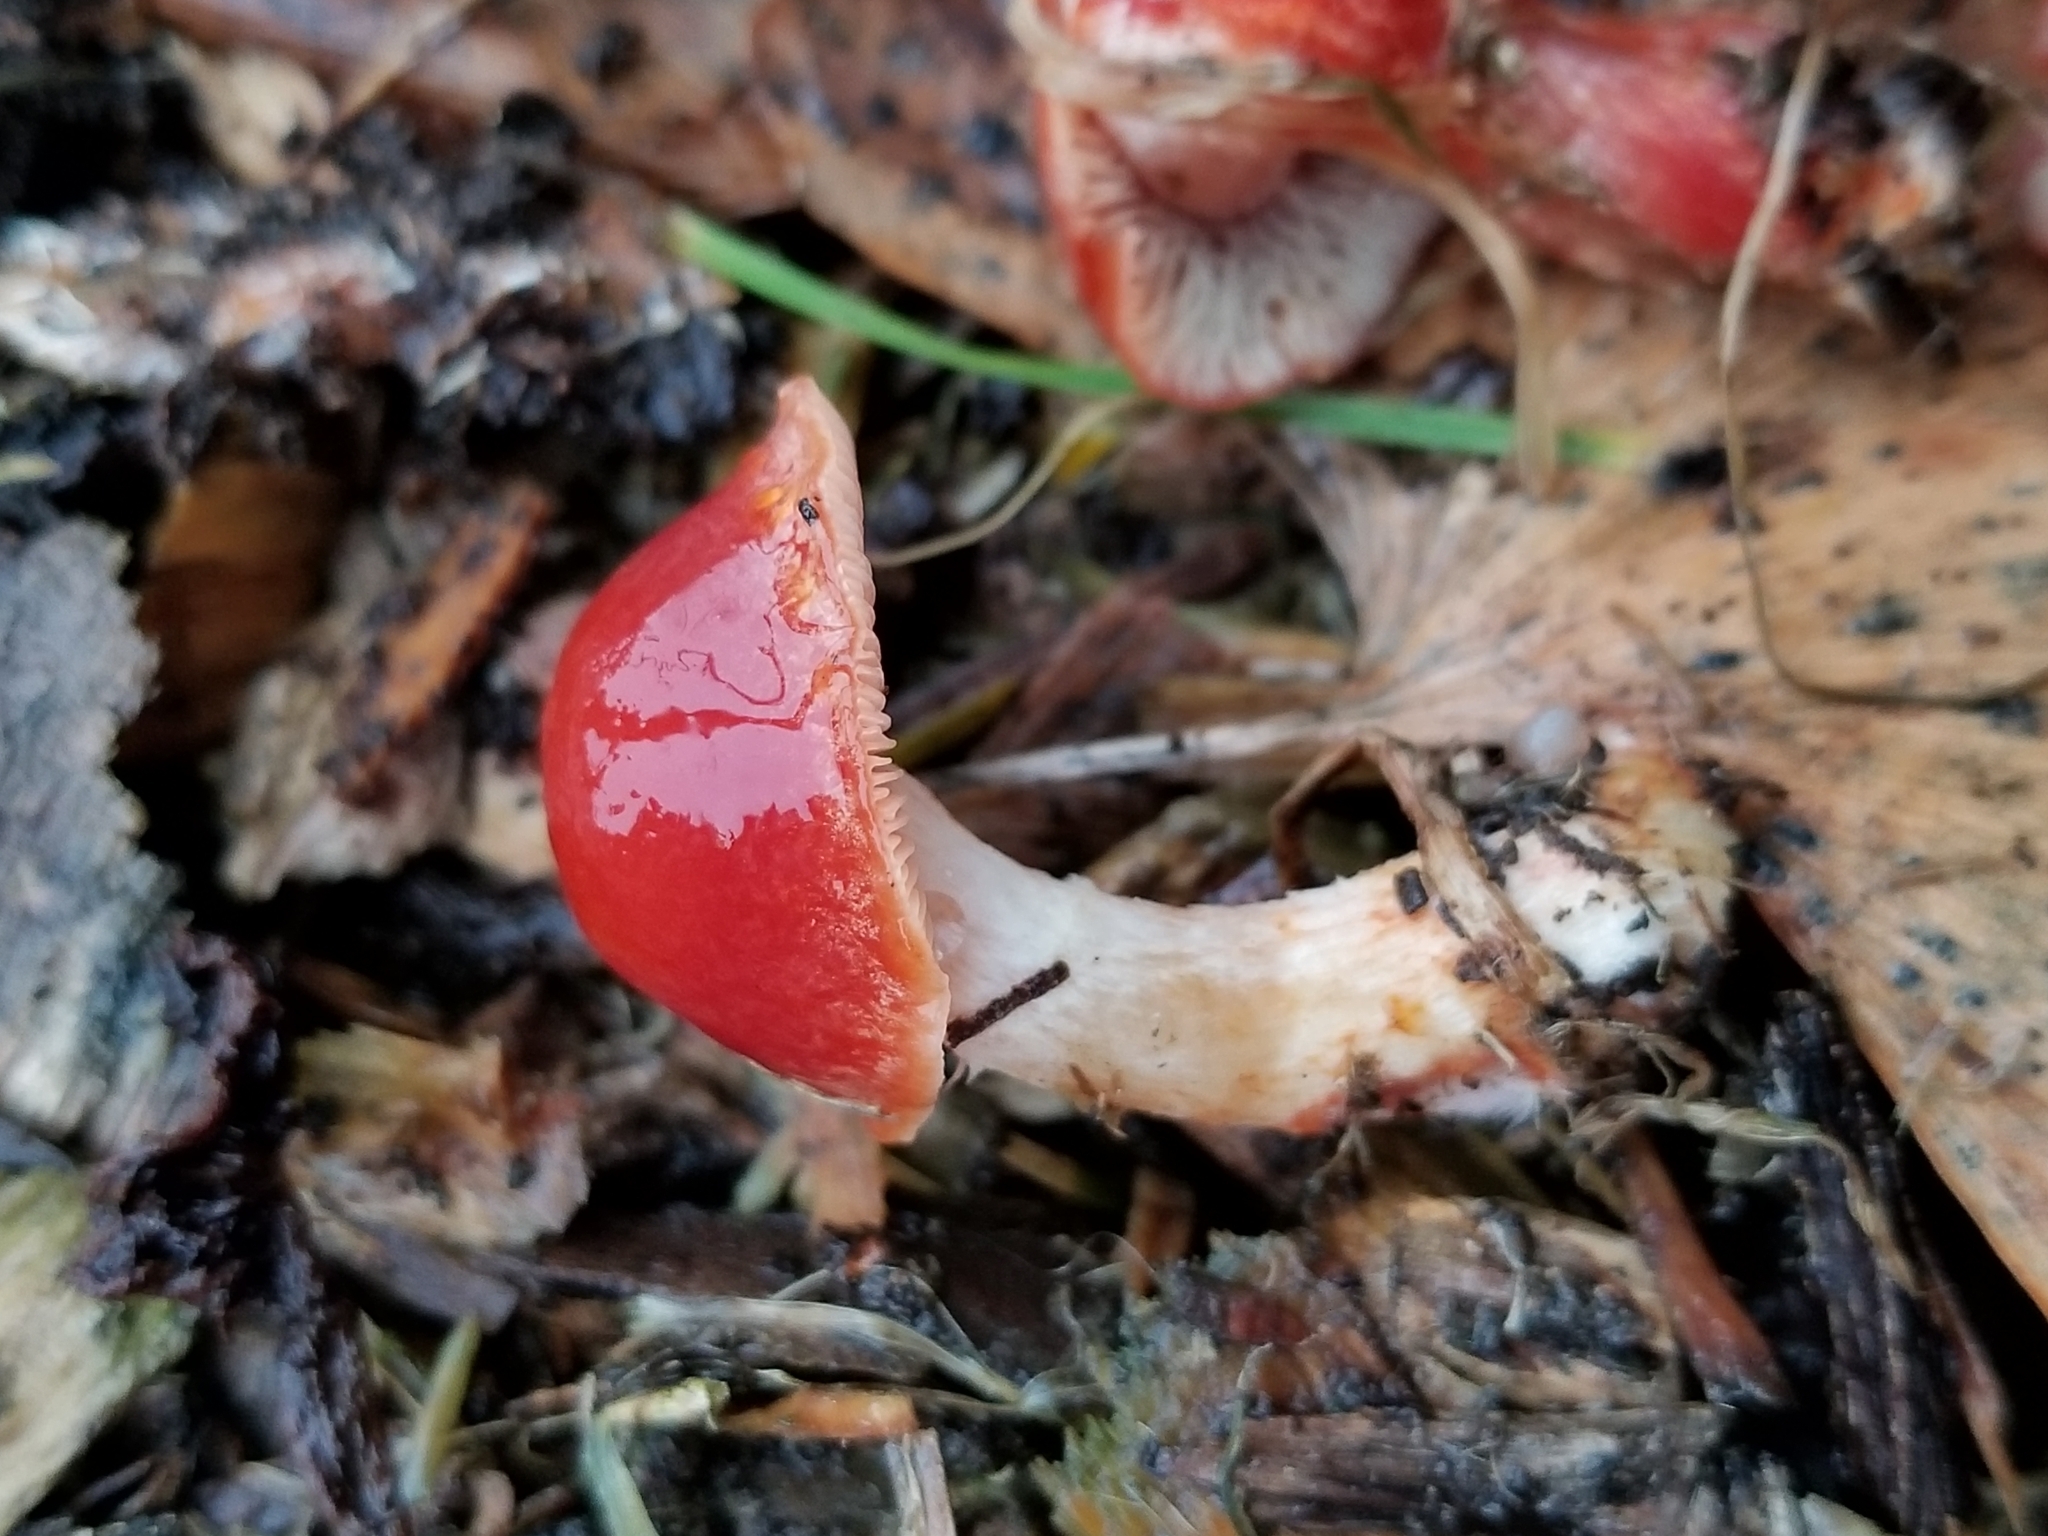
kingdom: Fungi
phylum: Basidiomycota
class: Agaricomycetes
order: Agaricales
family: Strophariaceae
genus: Leratiomyces
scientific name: Leratiomyces ceres
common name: Redlead roundhead
